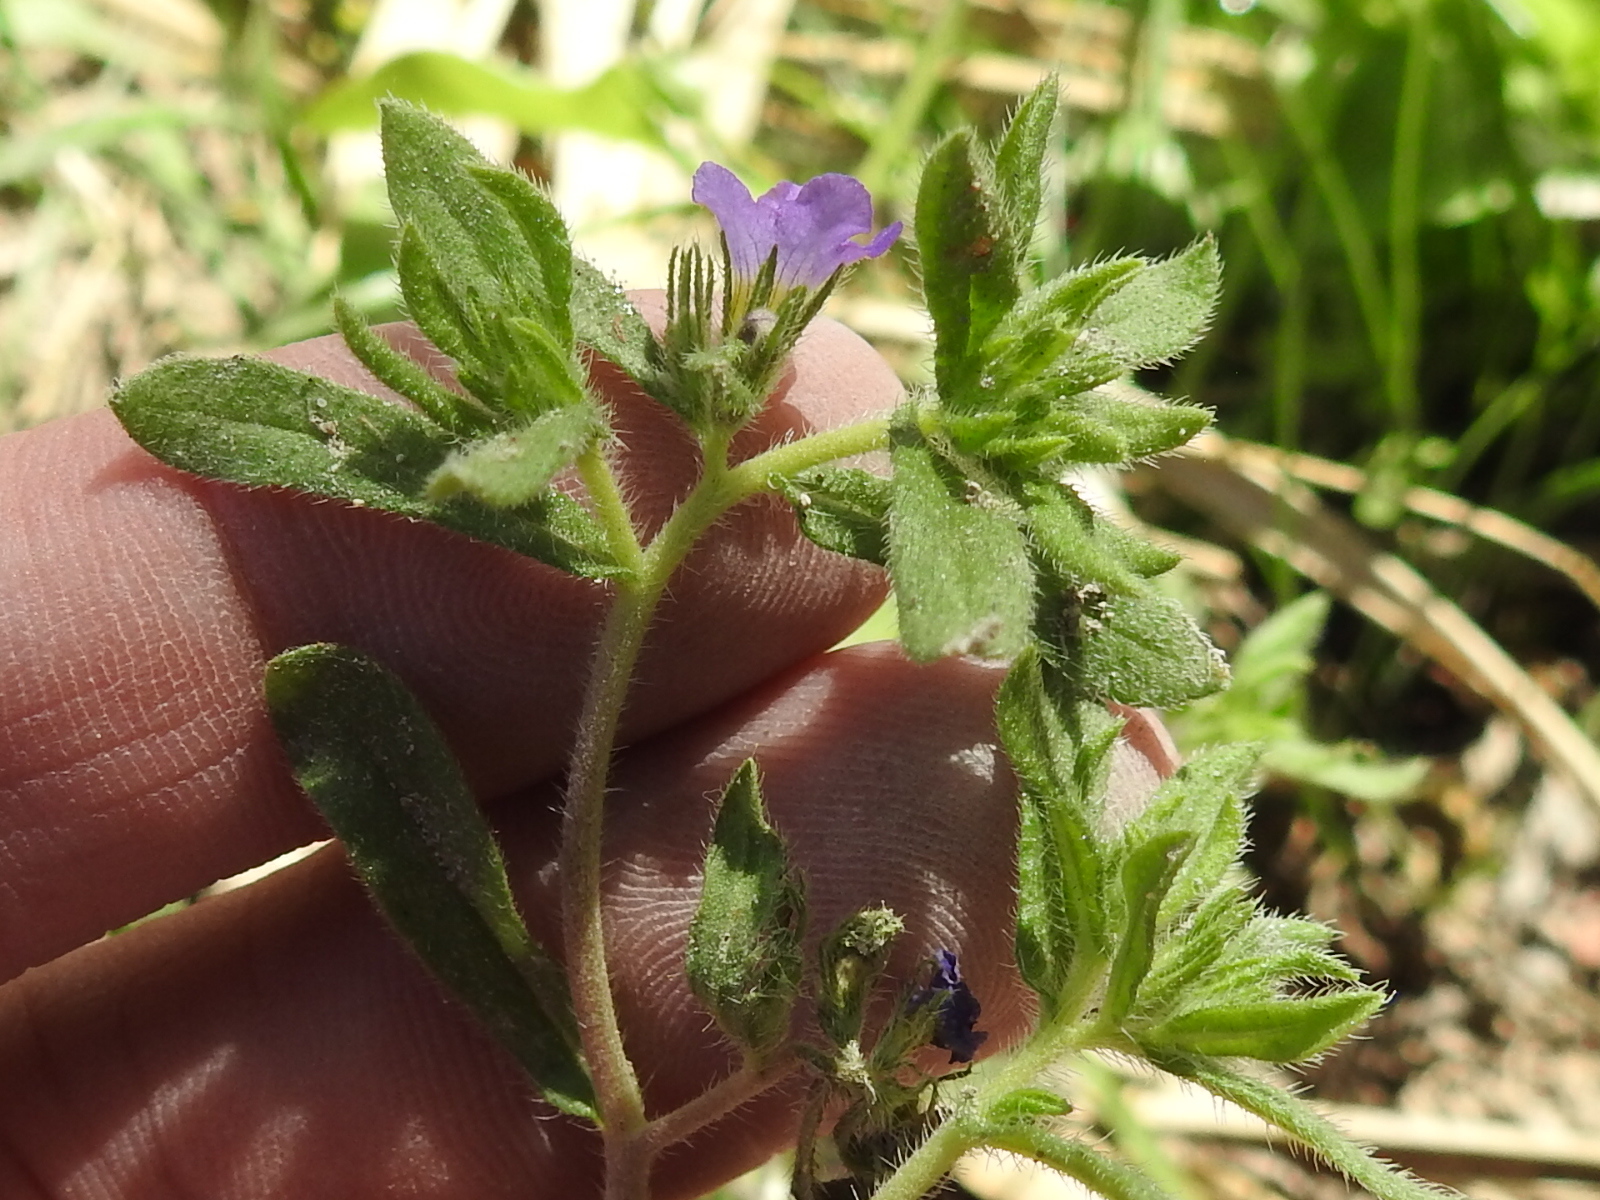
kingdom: Plantae
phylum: Tracheophyta
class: Magnoliopsida
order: Boraginales
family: Namaceae
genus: Nama
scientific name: Nama hispida
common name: Bristly nama
